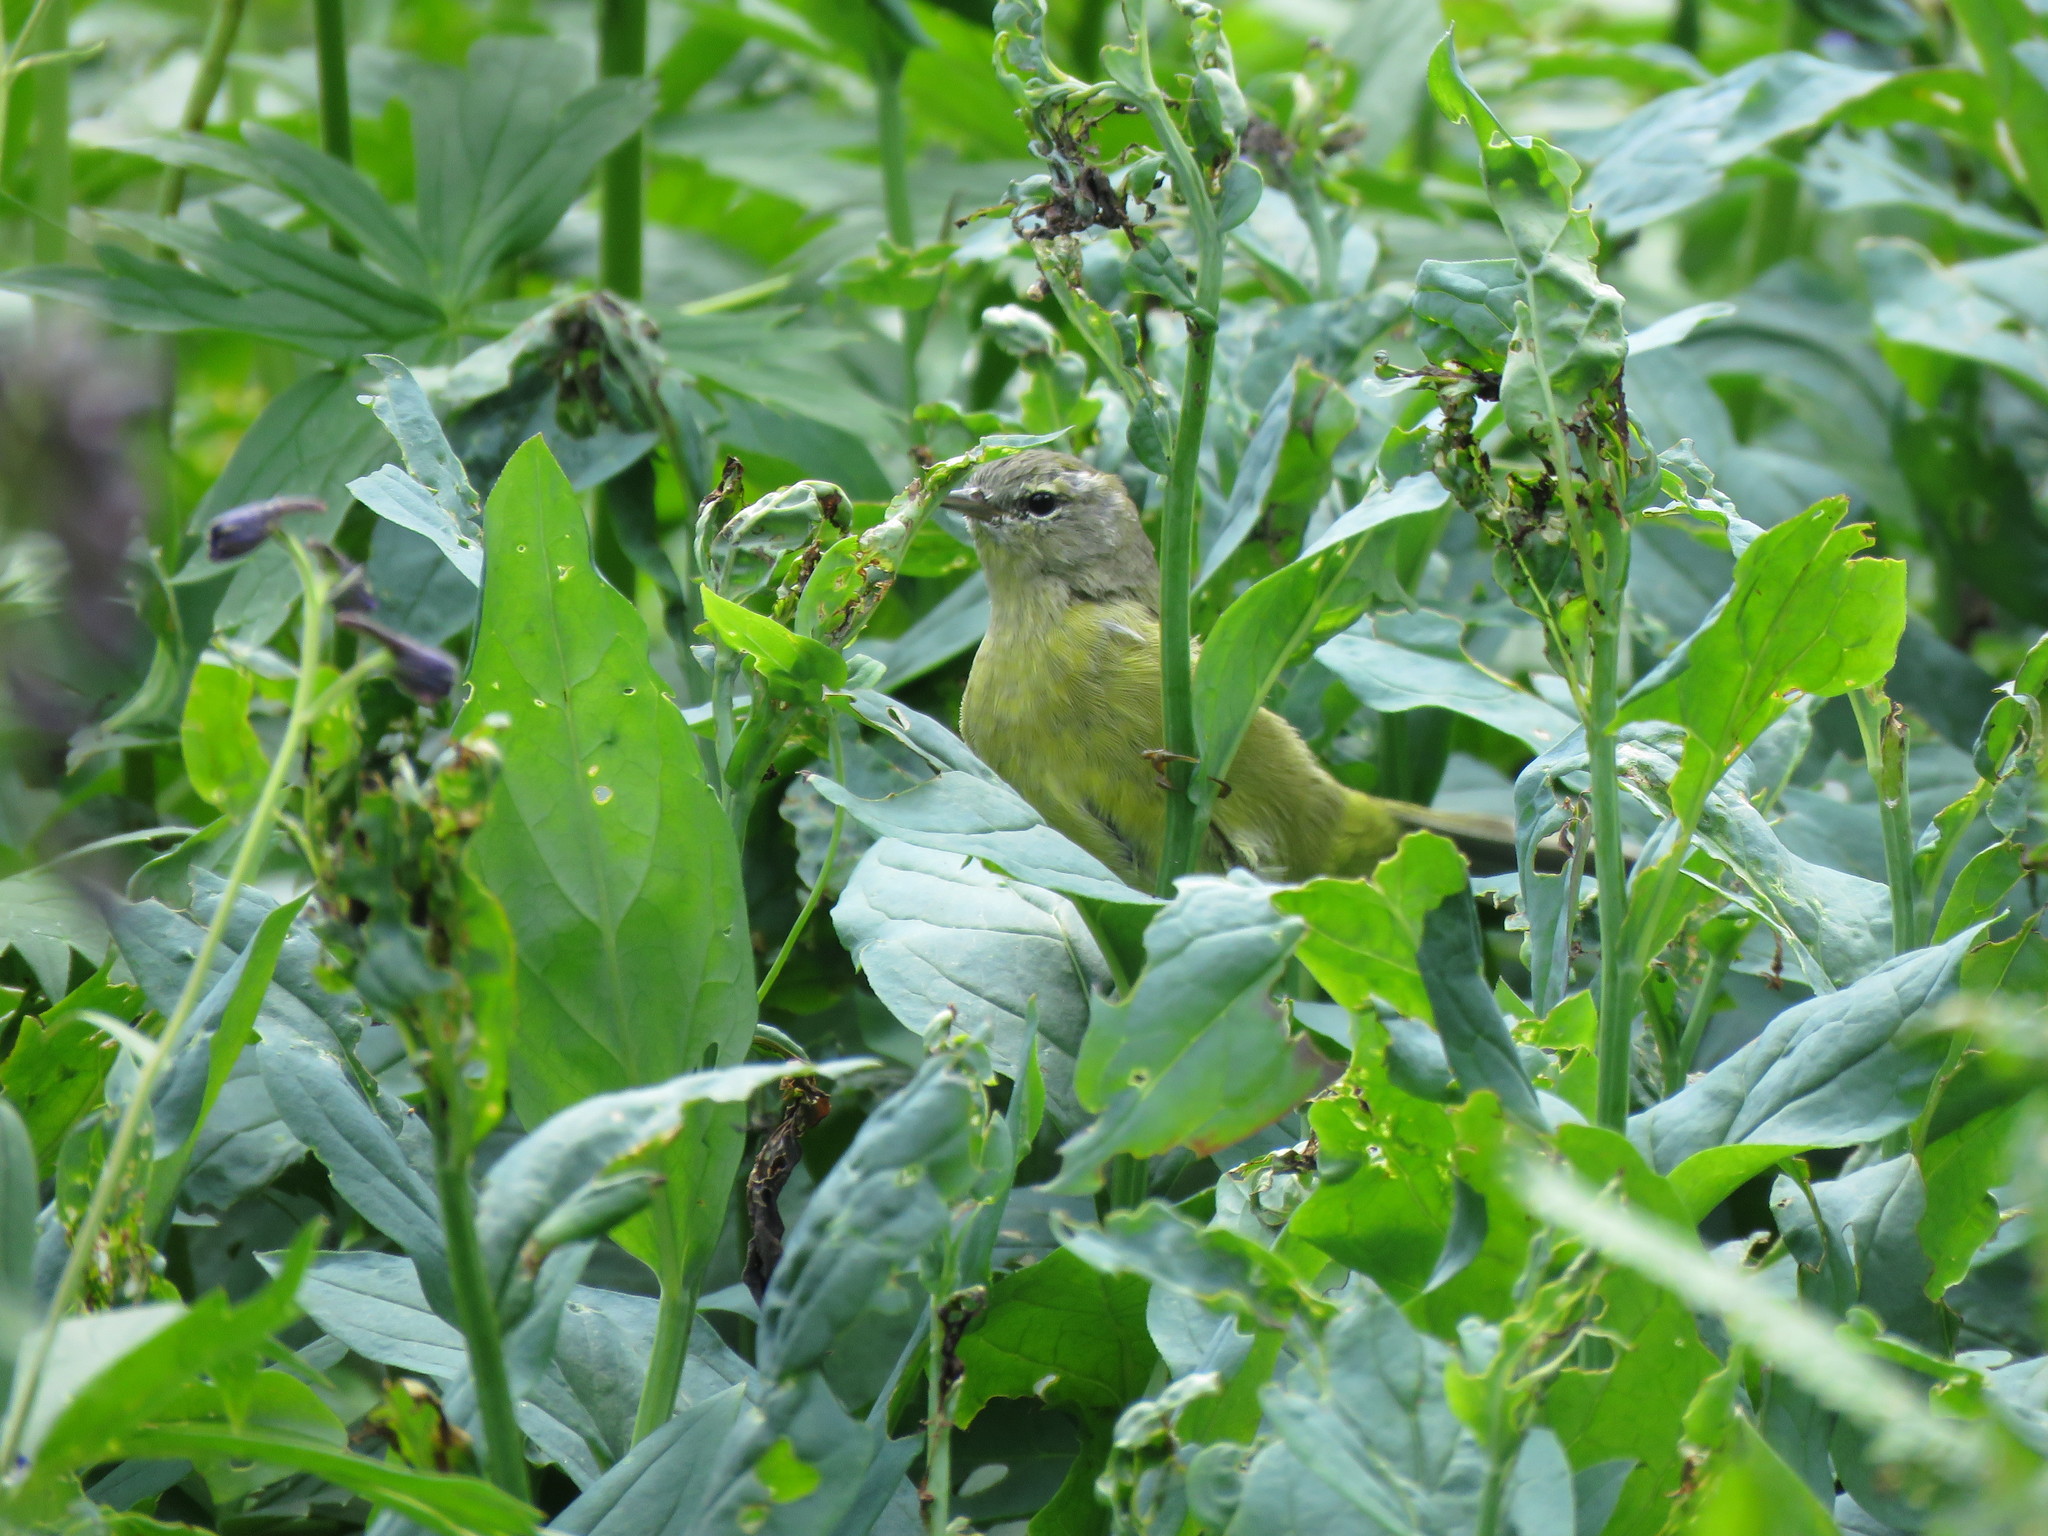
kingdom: Animalia
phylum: Chordata
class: Aves
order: Passeriformes
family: Parulidae
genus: Leiothlypis
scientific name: Leiothlypis celata
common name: Orange-crowned warbler
